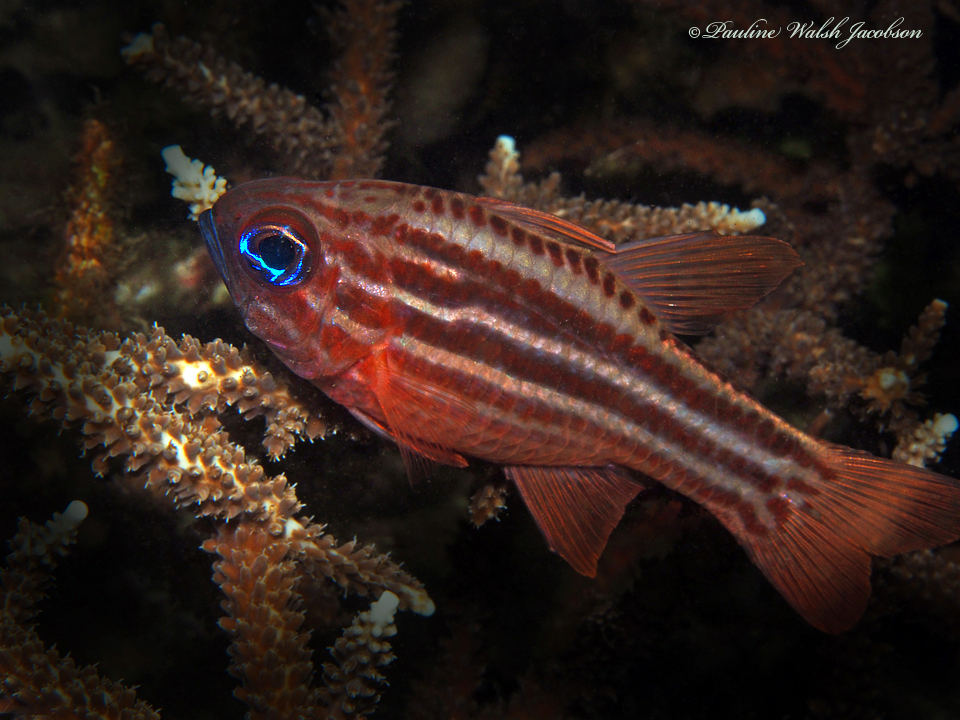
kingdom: Animalia
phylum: Chordata
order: Perciformes
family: Apogonidae
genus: Ostorhinchus
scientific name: Ostorhinchus compressus
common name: Ochre-striped cardinalfish
